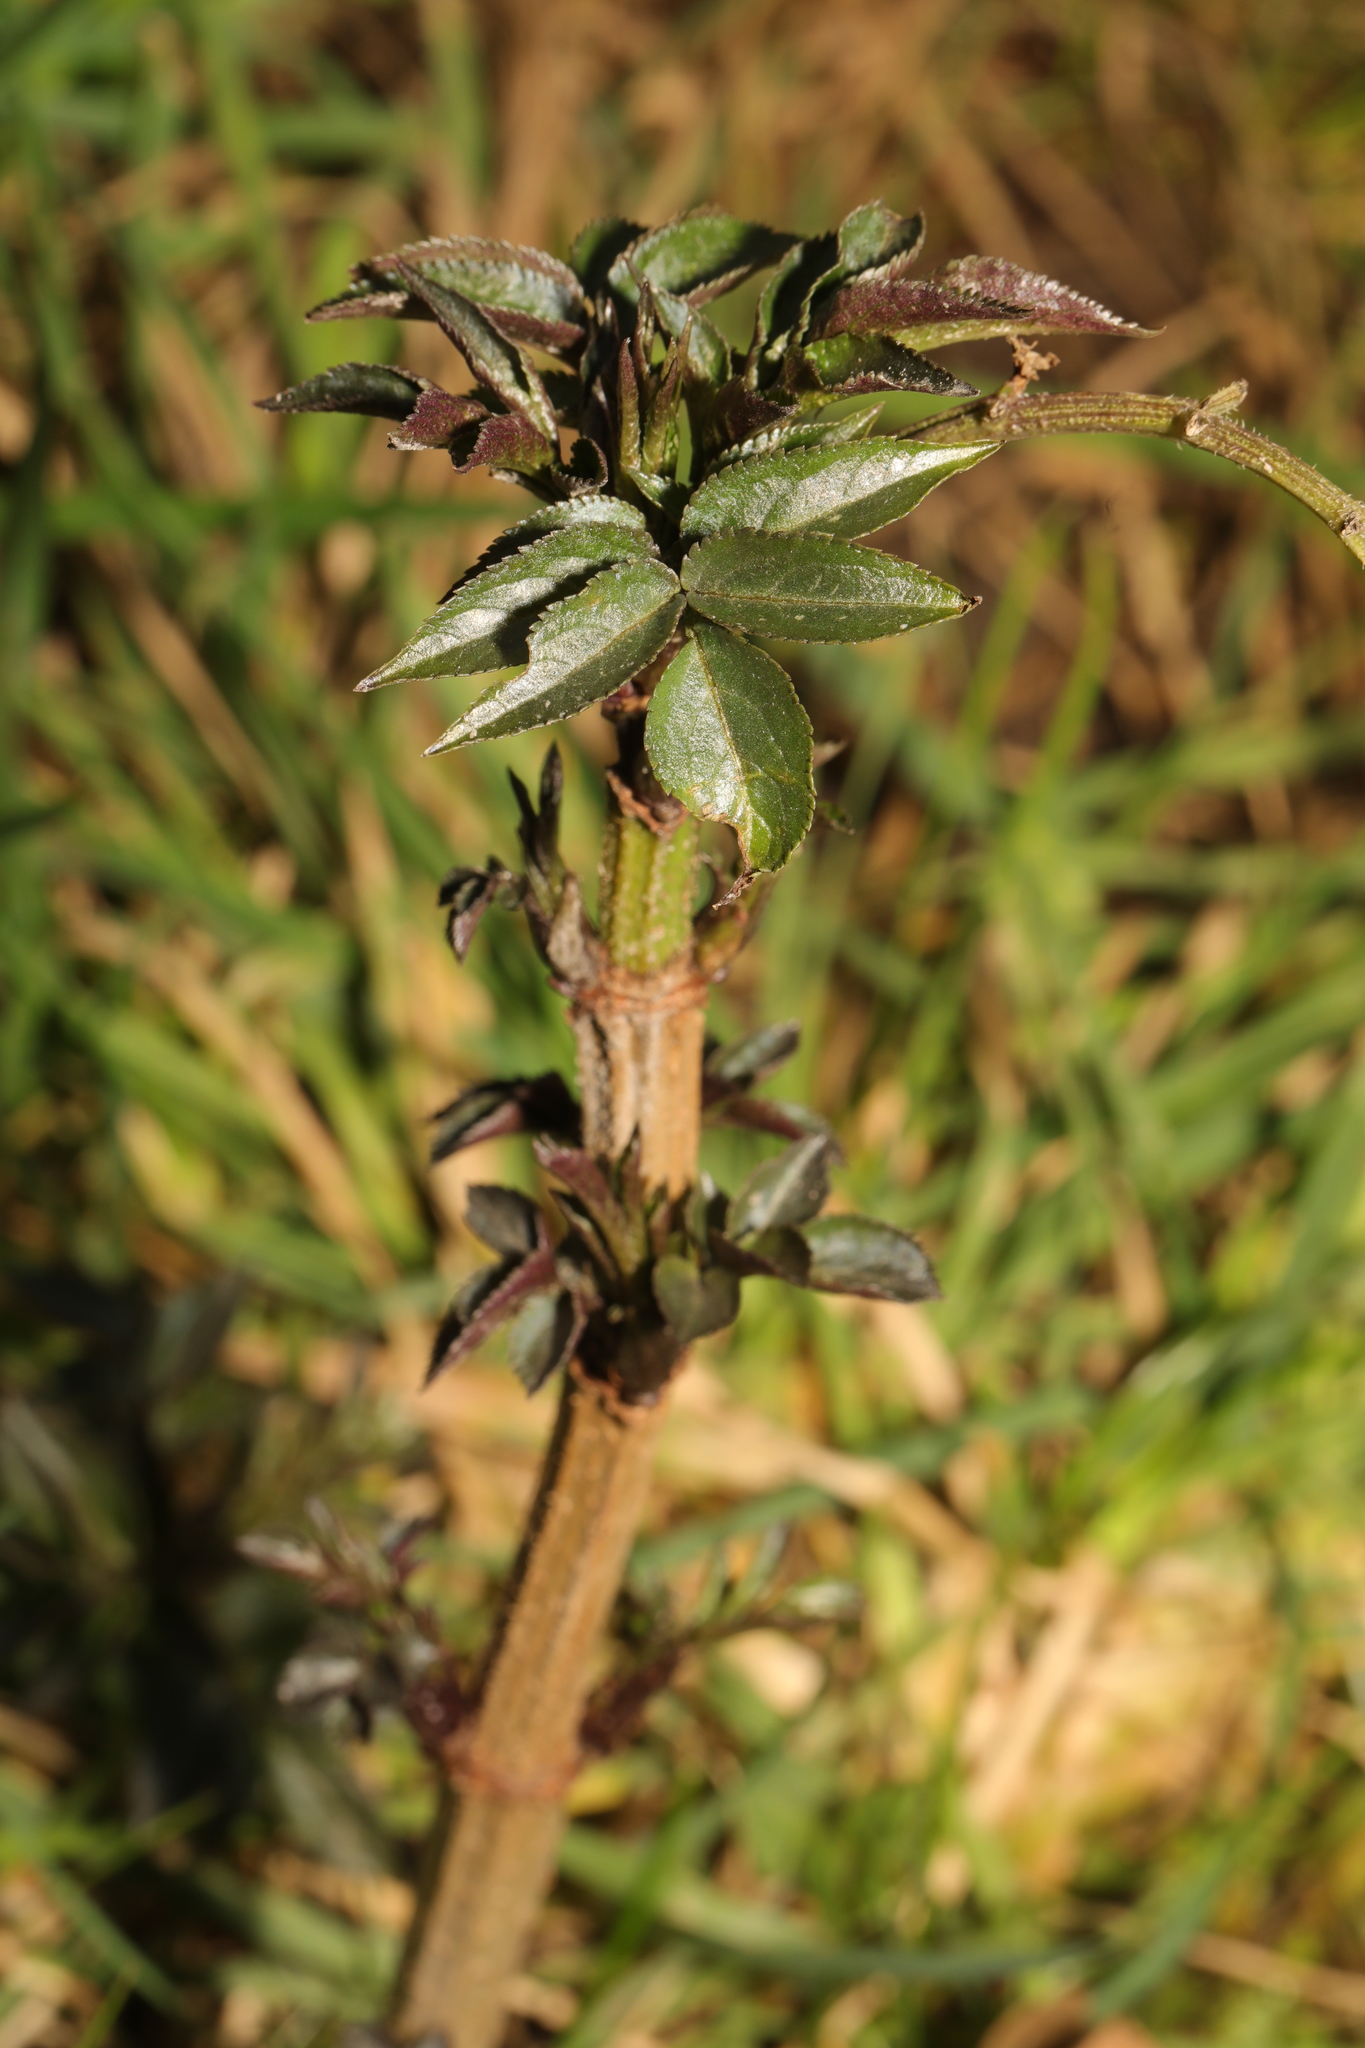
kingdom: Plantae
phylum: Tracheophyta
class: Magnoliopsida
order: Dipsacales
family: Viburnaceae
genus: Sambucus
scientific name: Sambucus nigra
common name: Elder
